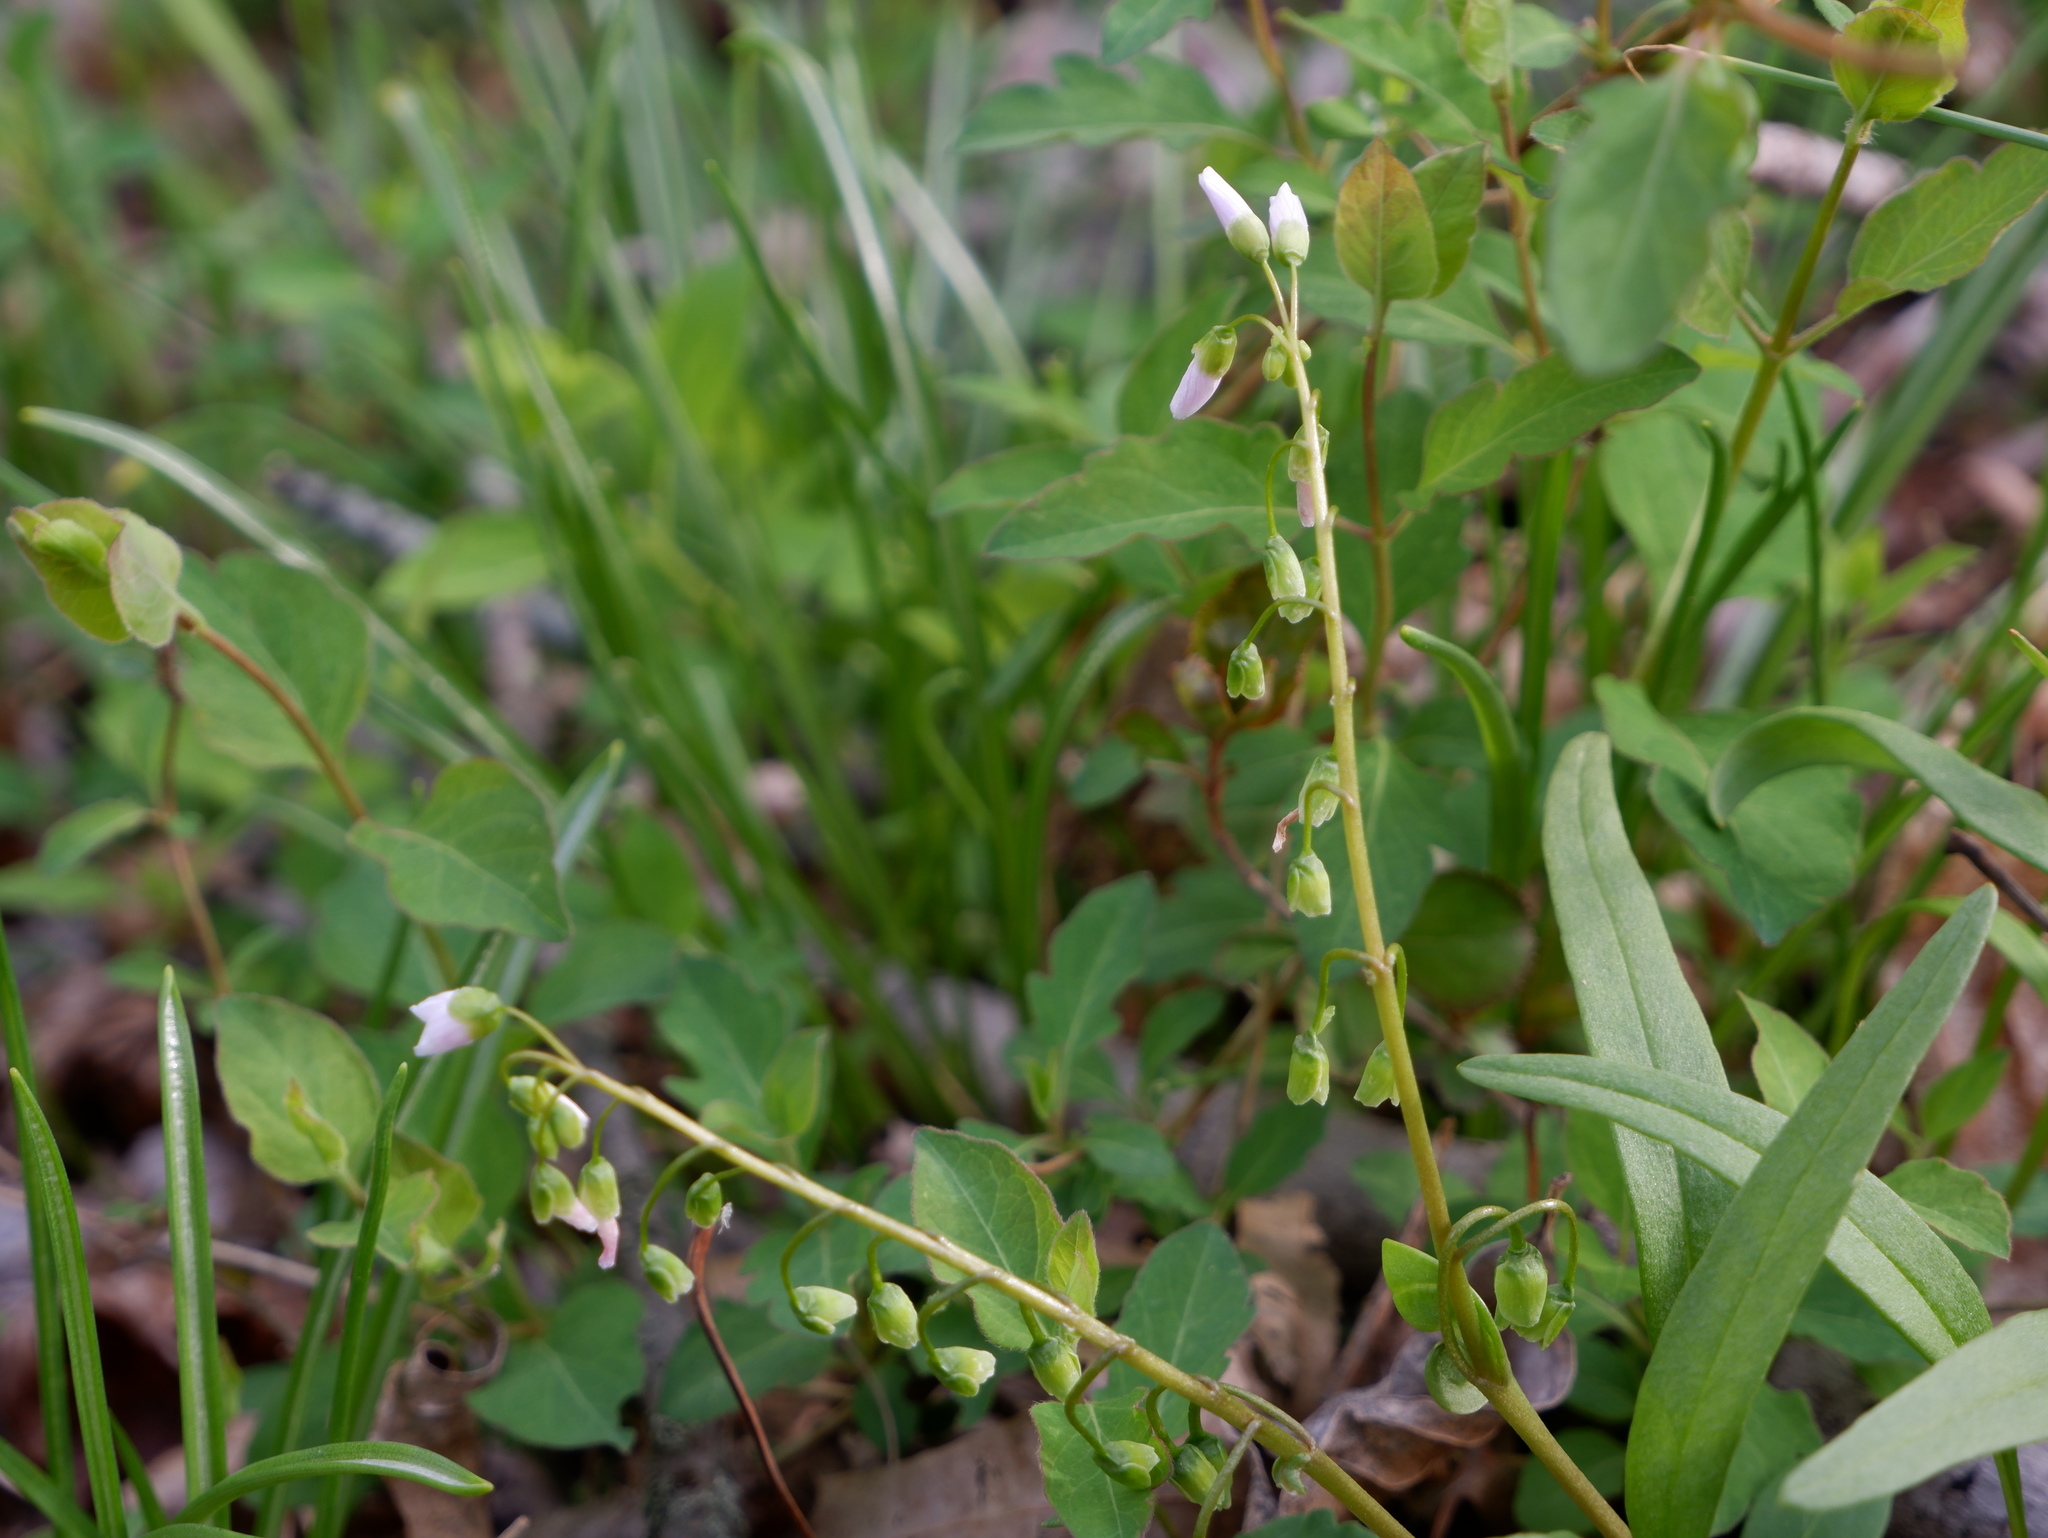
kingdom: Plantae
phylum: Tracheophyta
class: Magnoliopsida
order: Caryophyllales
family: Montiaceae
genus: Claytonia
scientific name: Claytonia virginica
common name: Virginia springbeauty
